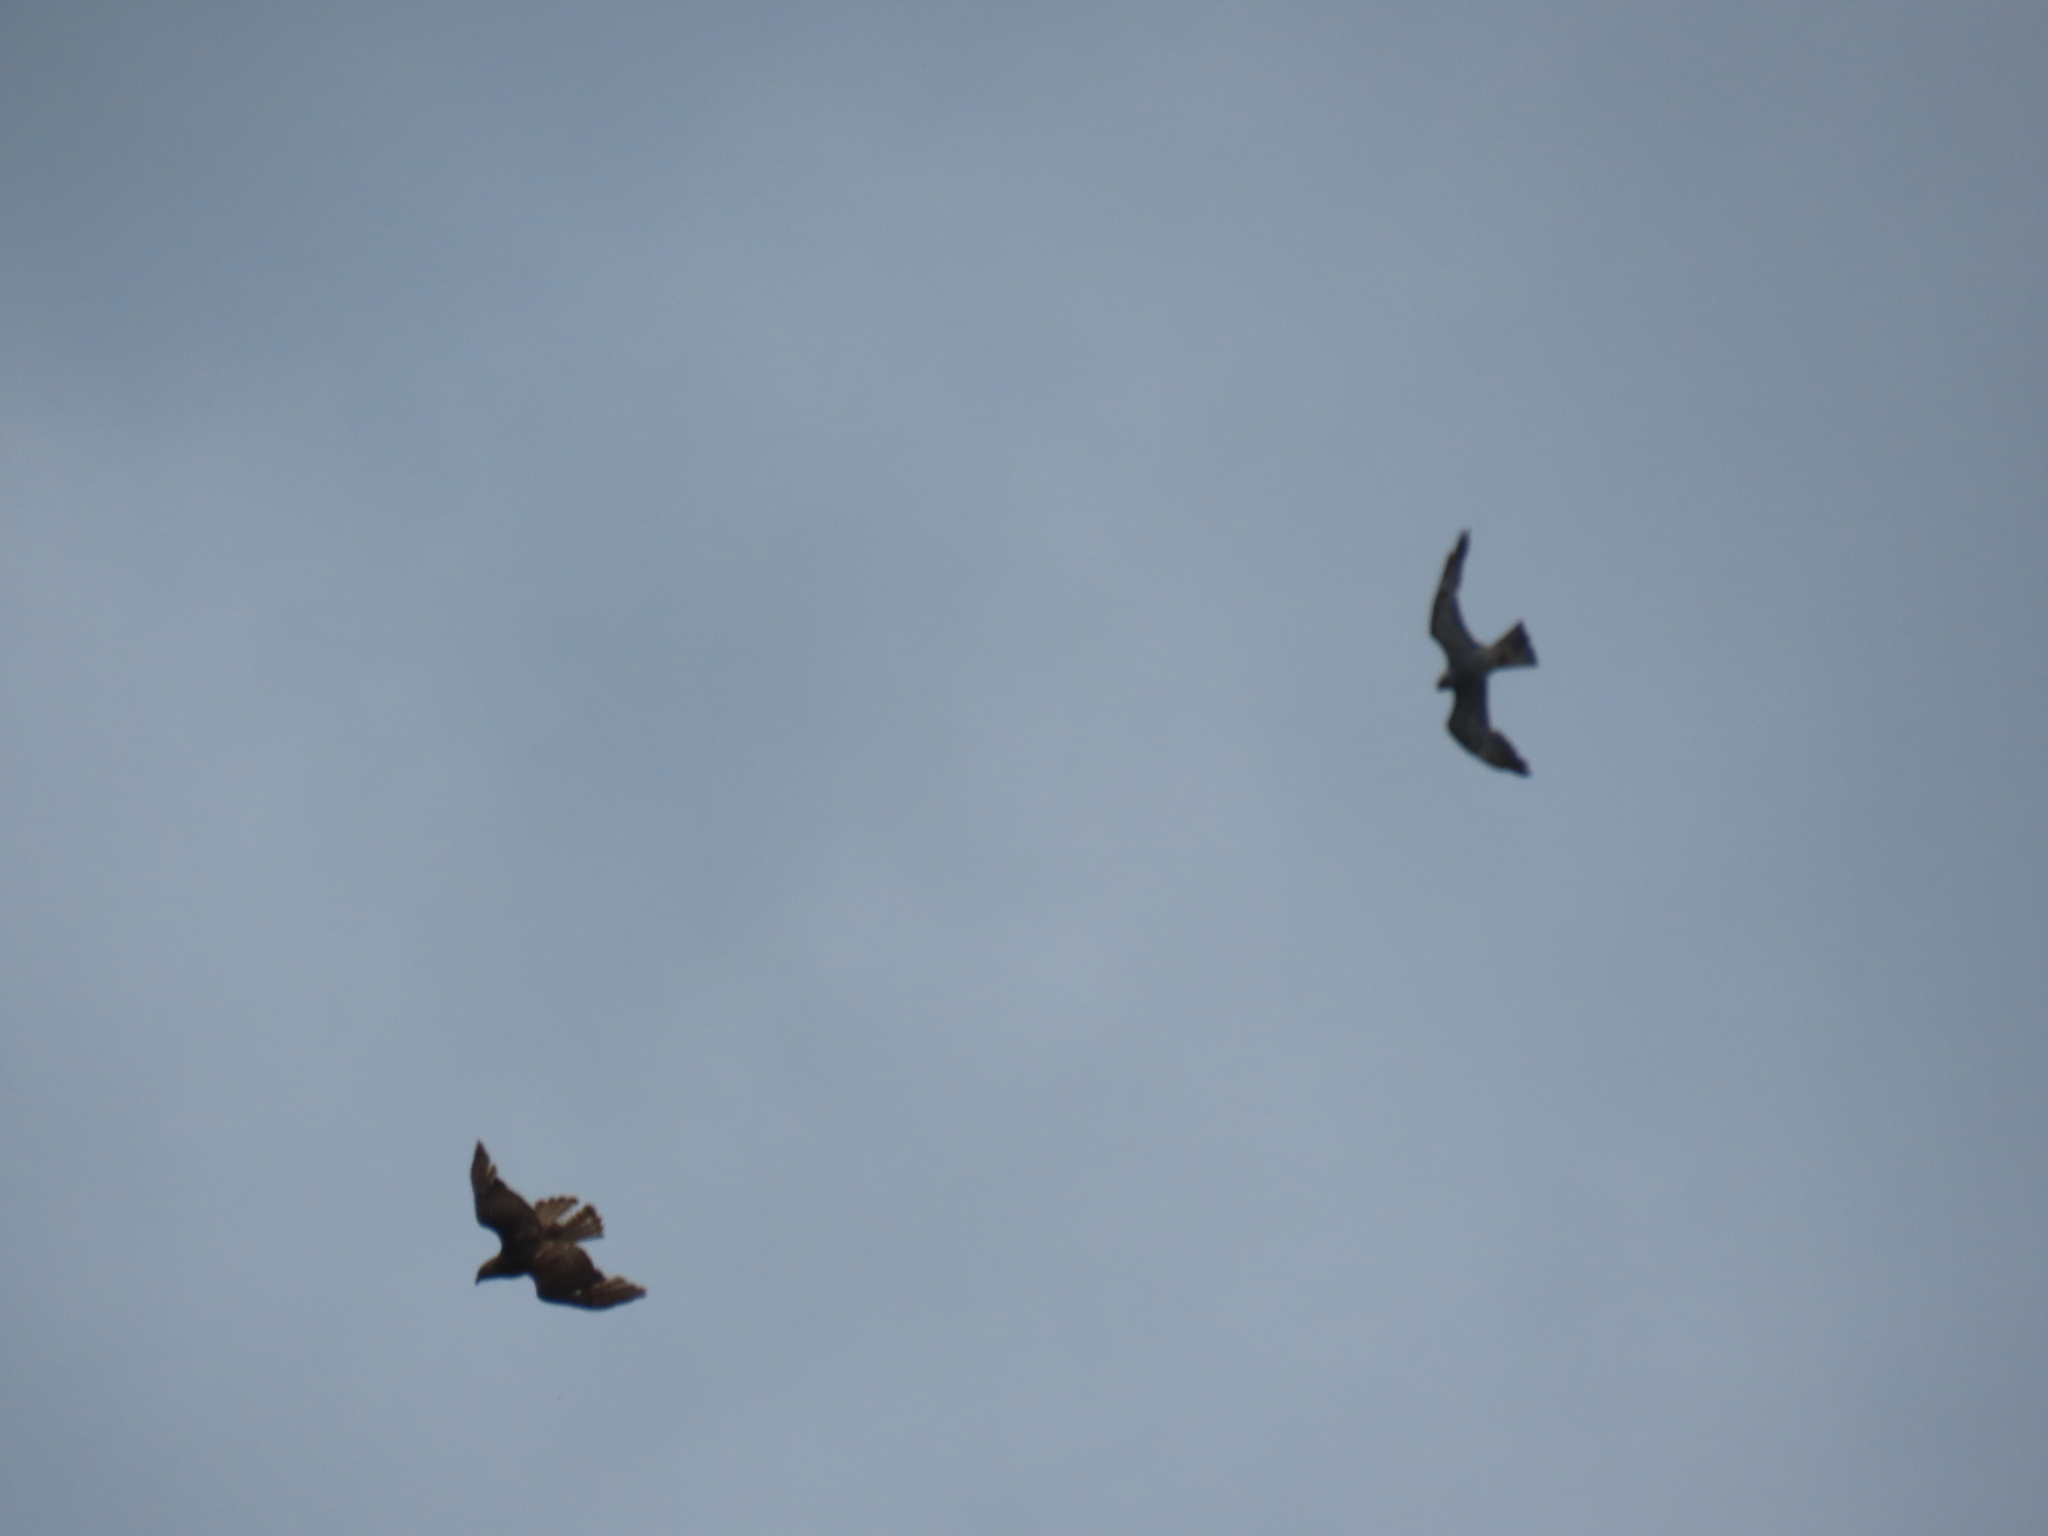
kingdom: Animalia
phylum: Chordata
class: Aves
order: Accipitriformes
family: Accipitridae
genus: Ictinia
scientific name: Ictinia mississippiensis
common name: Mississippi kite
